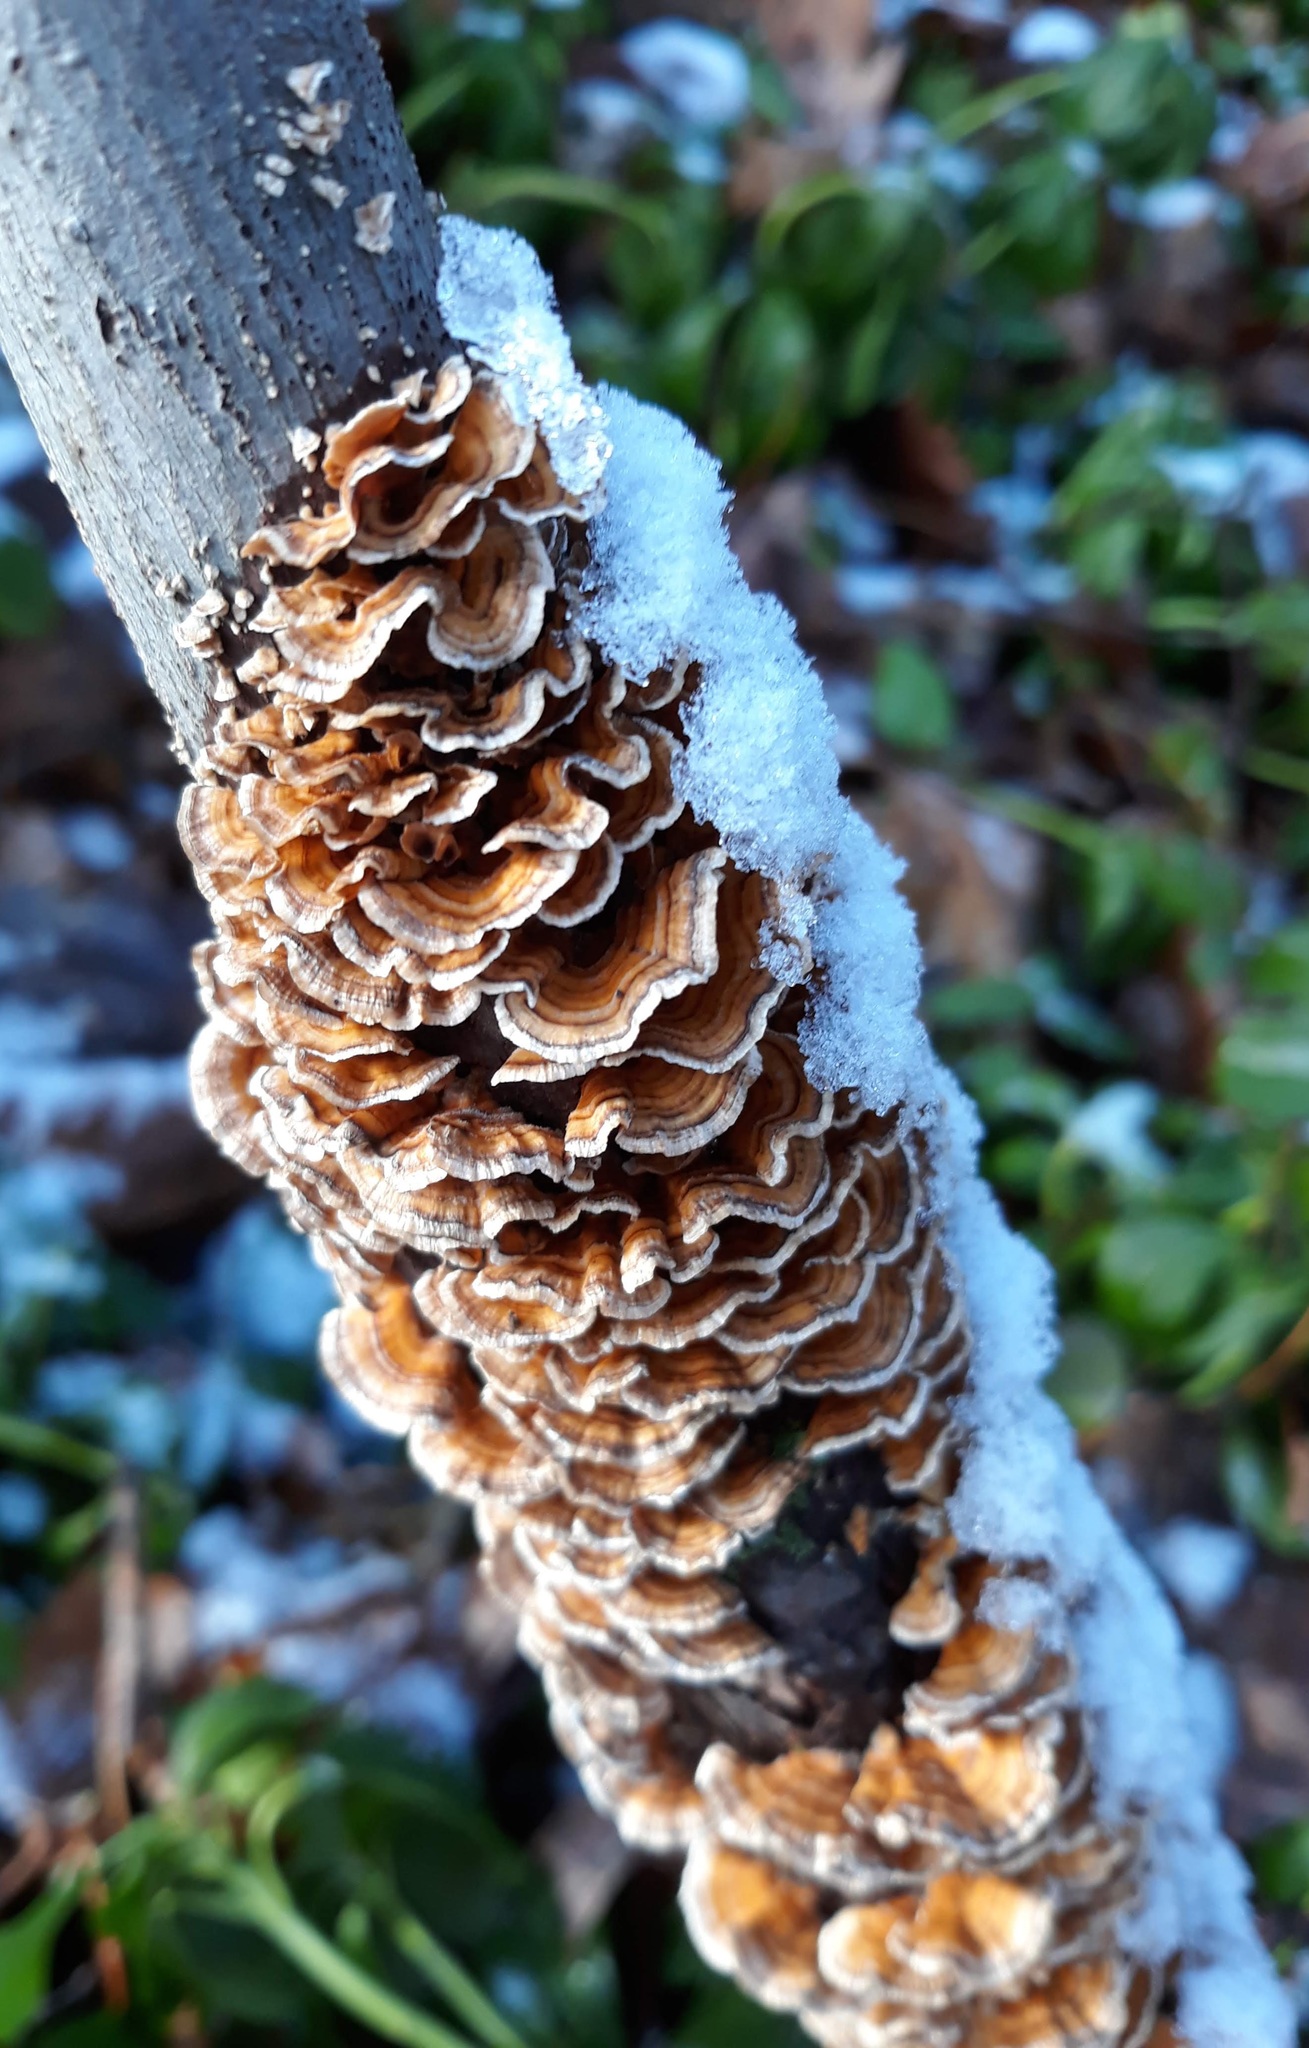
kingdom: Fungi
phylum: Basidiomycota
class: Agaricomycetes
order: Russulales
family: Stereaceae
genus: Stereum
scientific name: Stereum complicatum
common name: Crowded parchment
